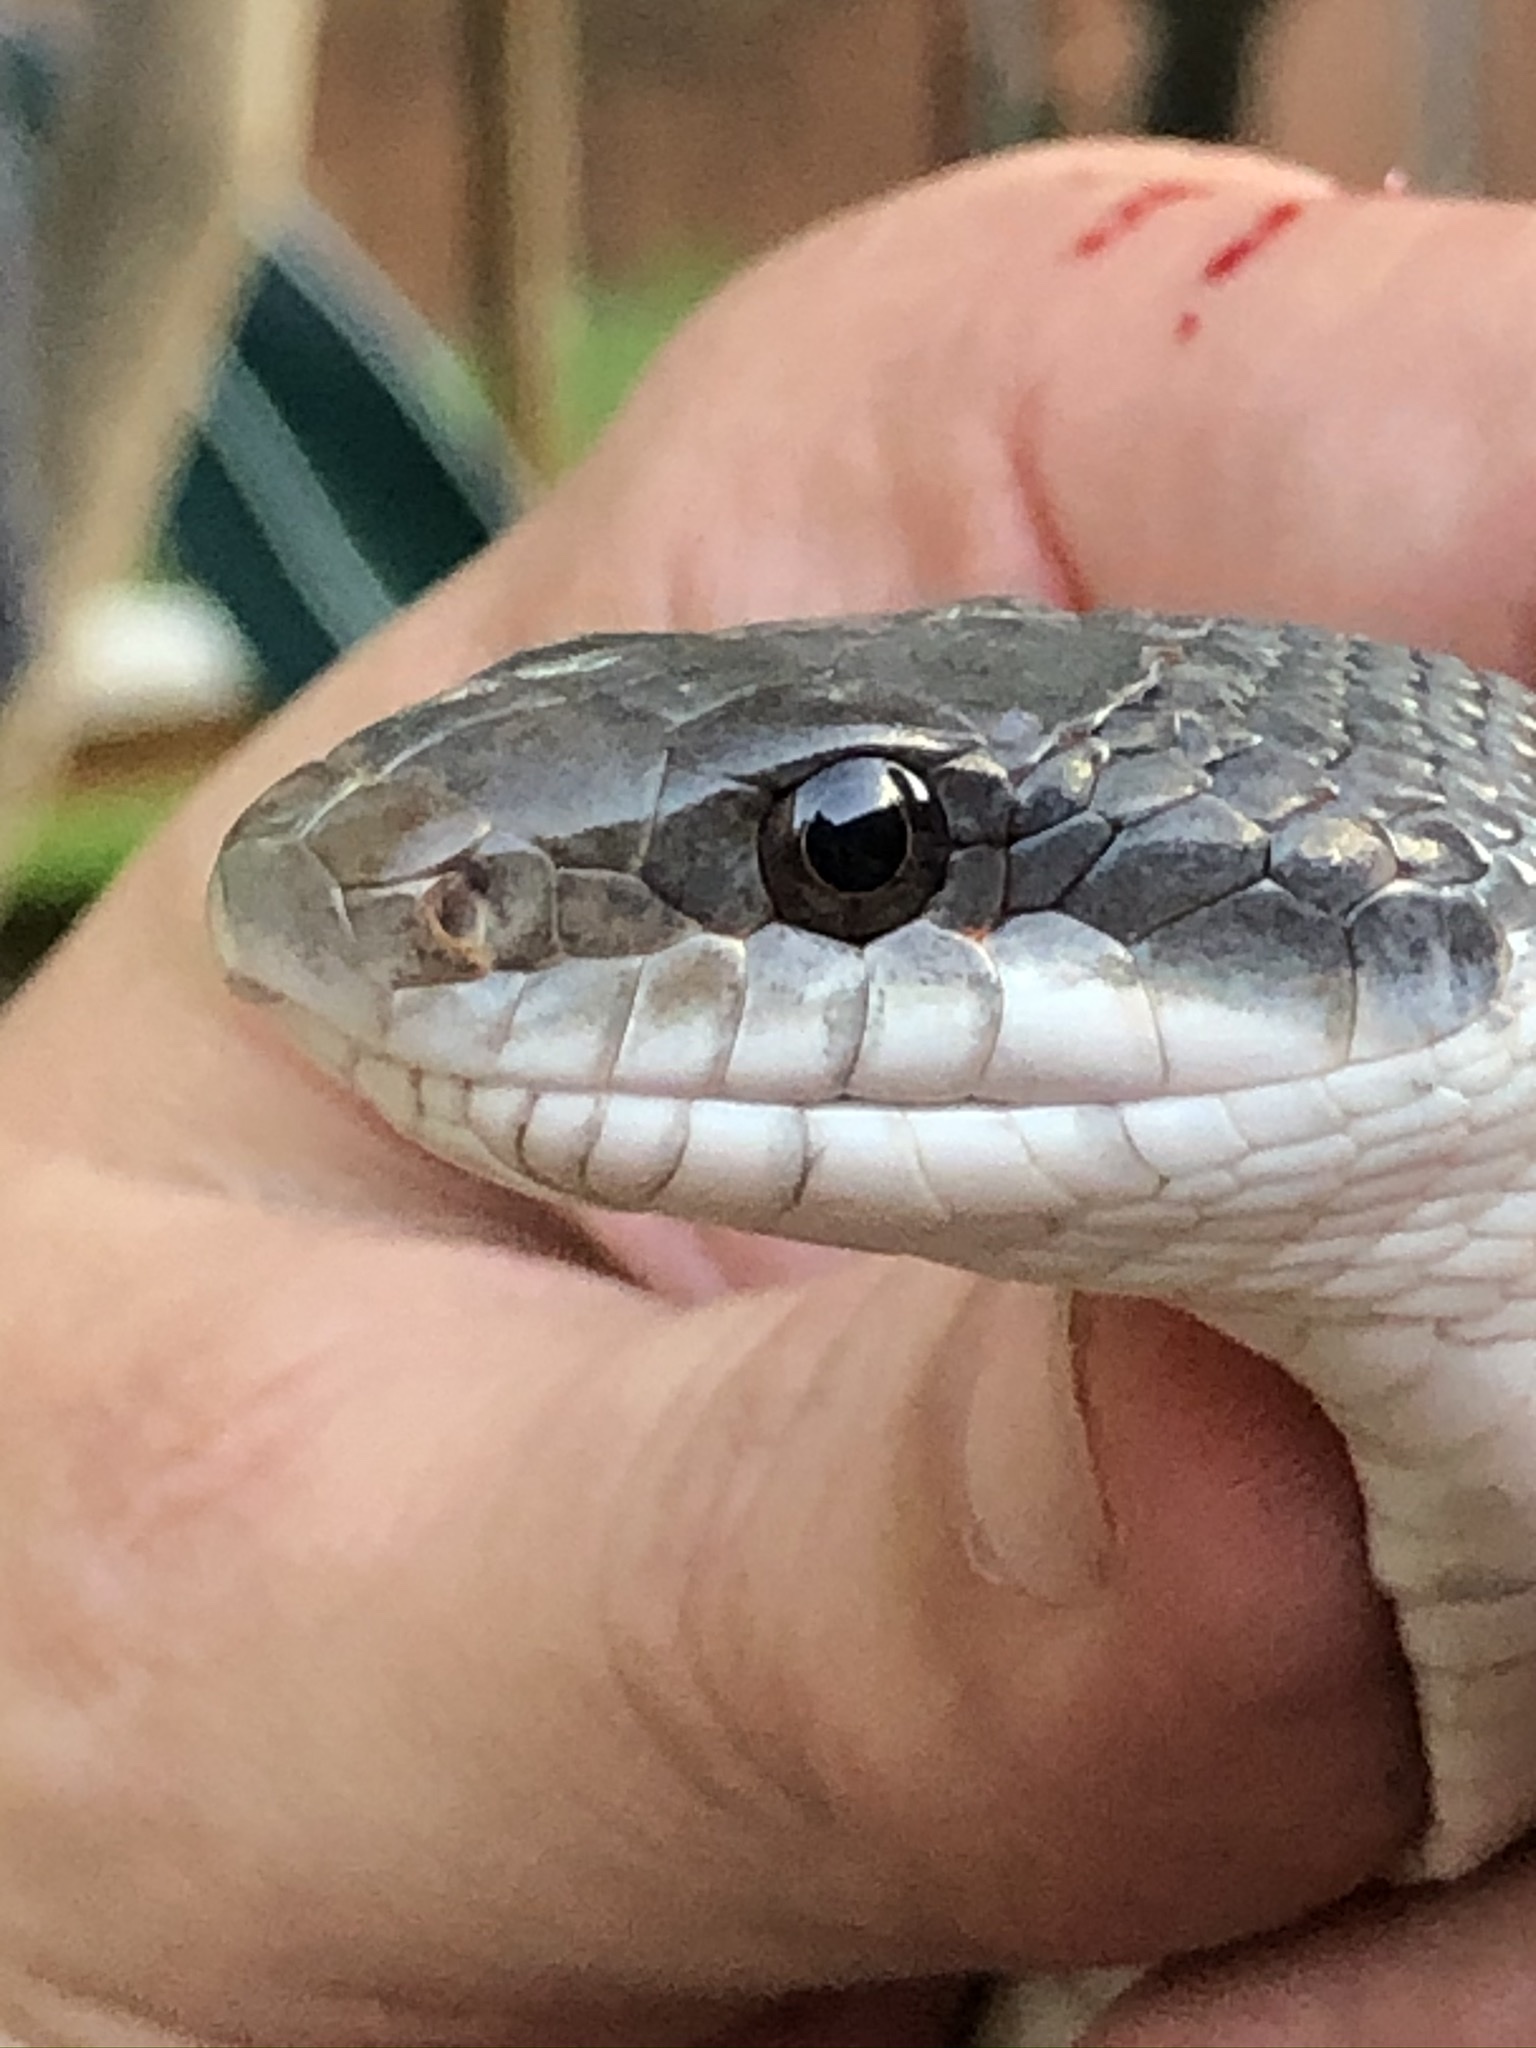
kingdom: Animalia
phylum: Chordata
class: Squamata
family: Colubridae
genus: Pantherophis
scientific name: Pantherophis obsoletus
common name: Black rat snake
